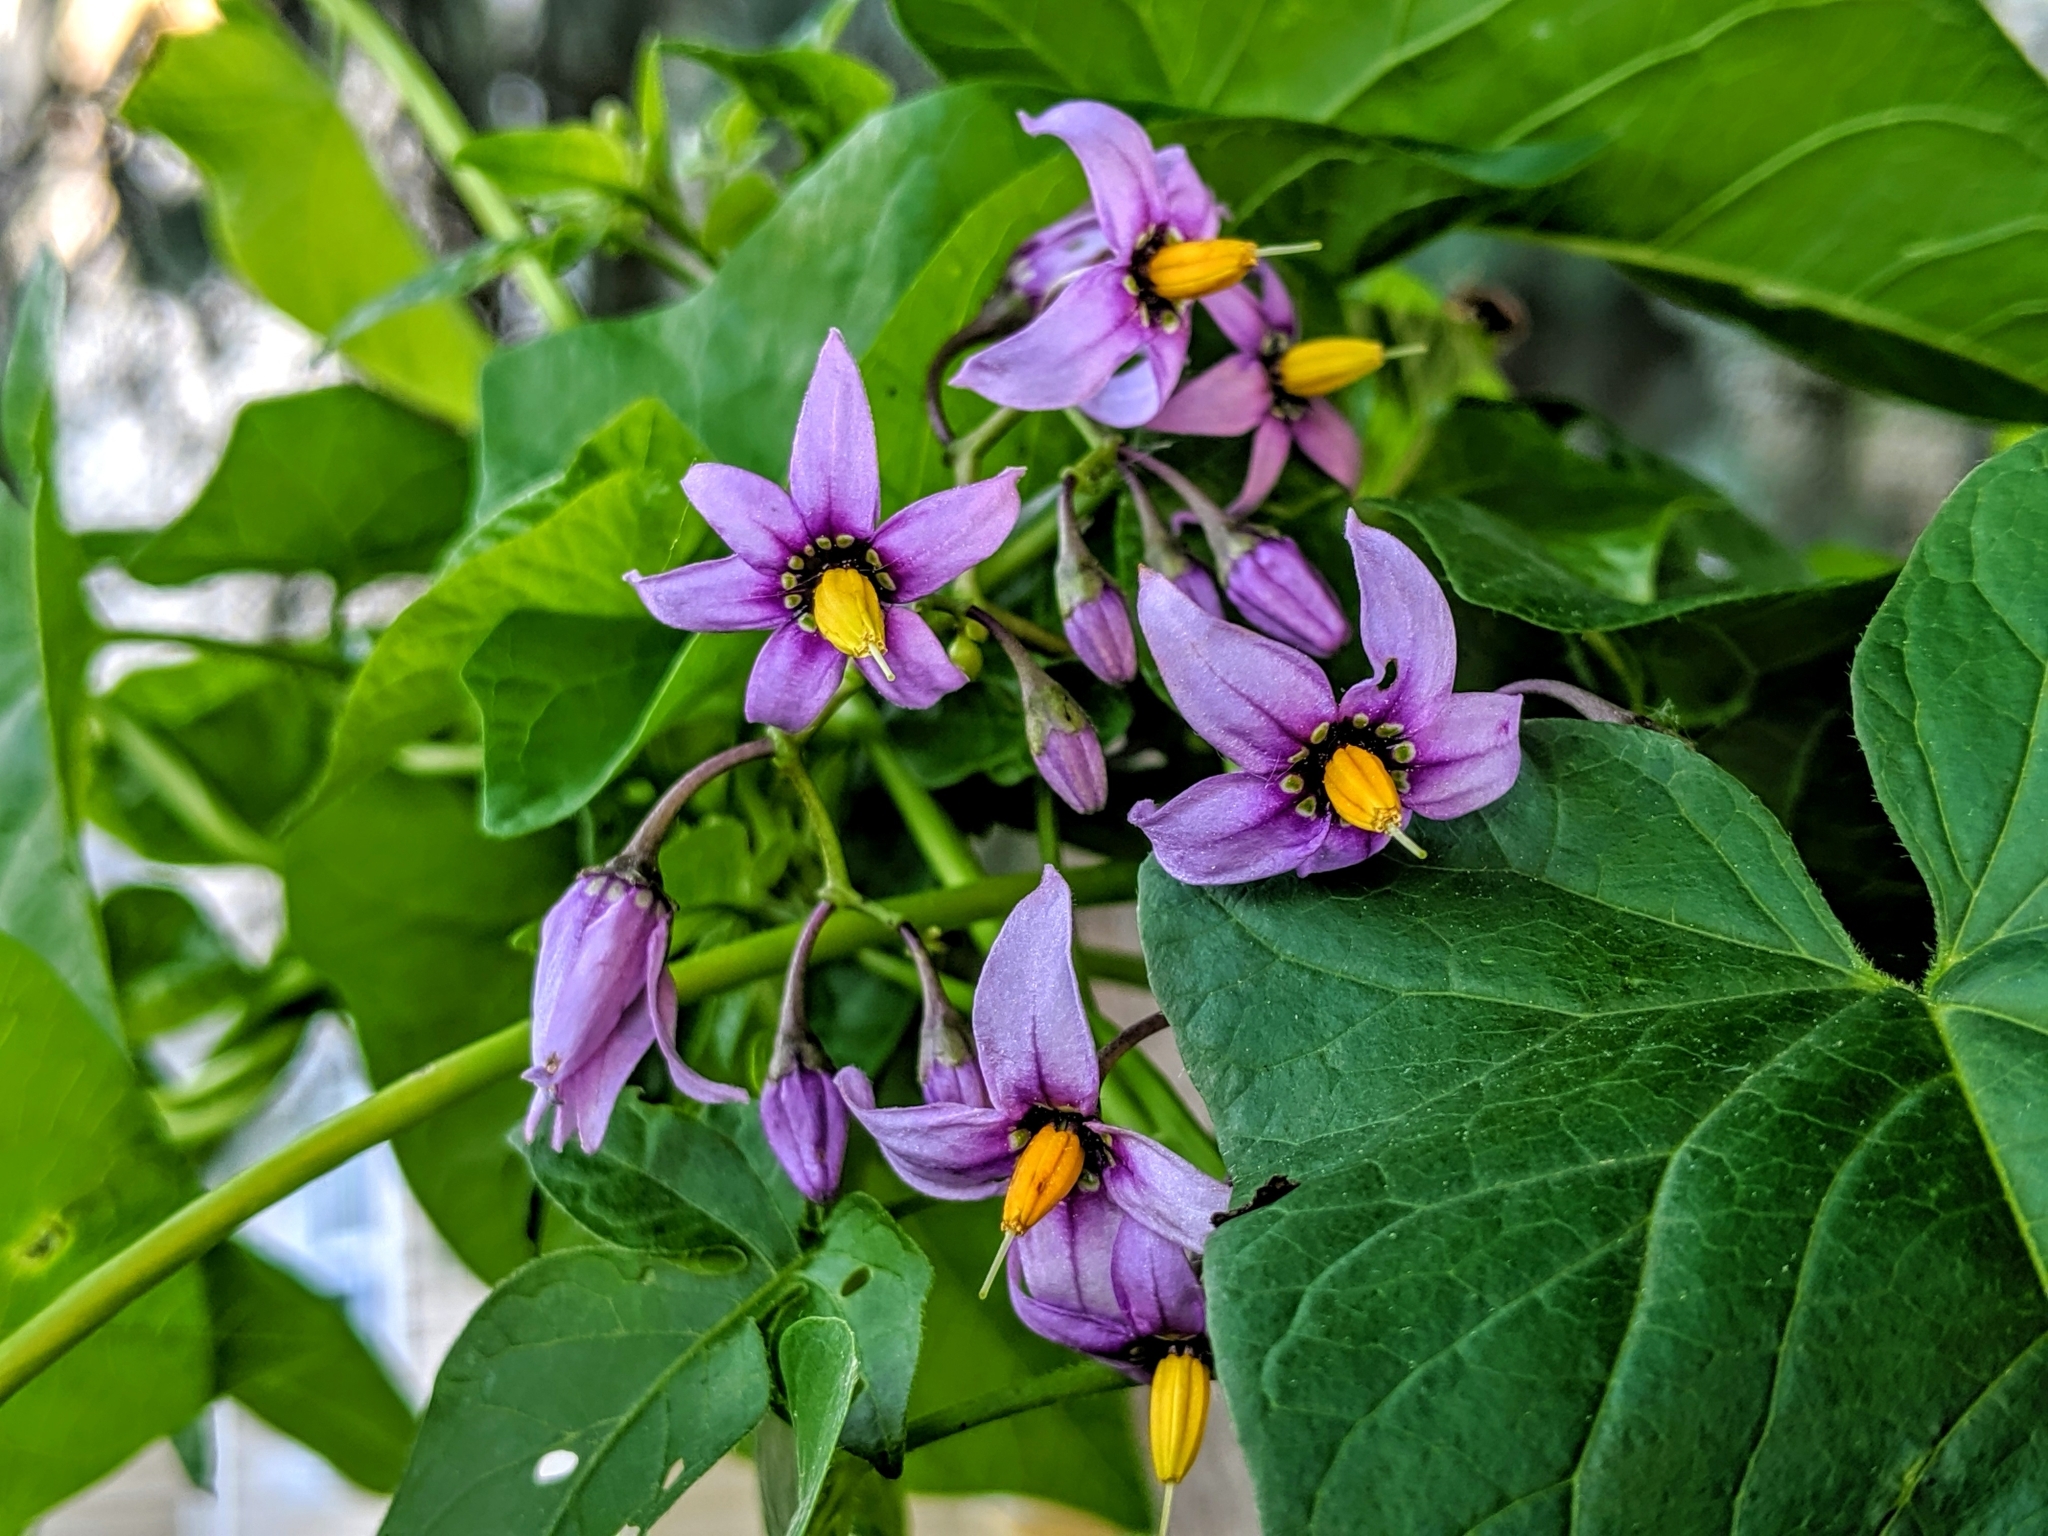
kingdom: Plantae
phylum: Tracheophyta
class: Magnoliopsida
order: Solanales
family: Solanaceae
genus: Solanum
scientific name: Solanum dulcamara
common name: Climbing nightshade
